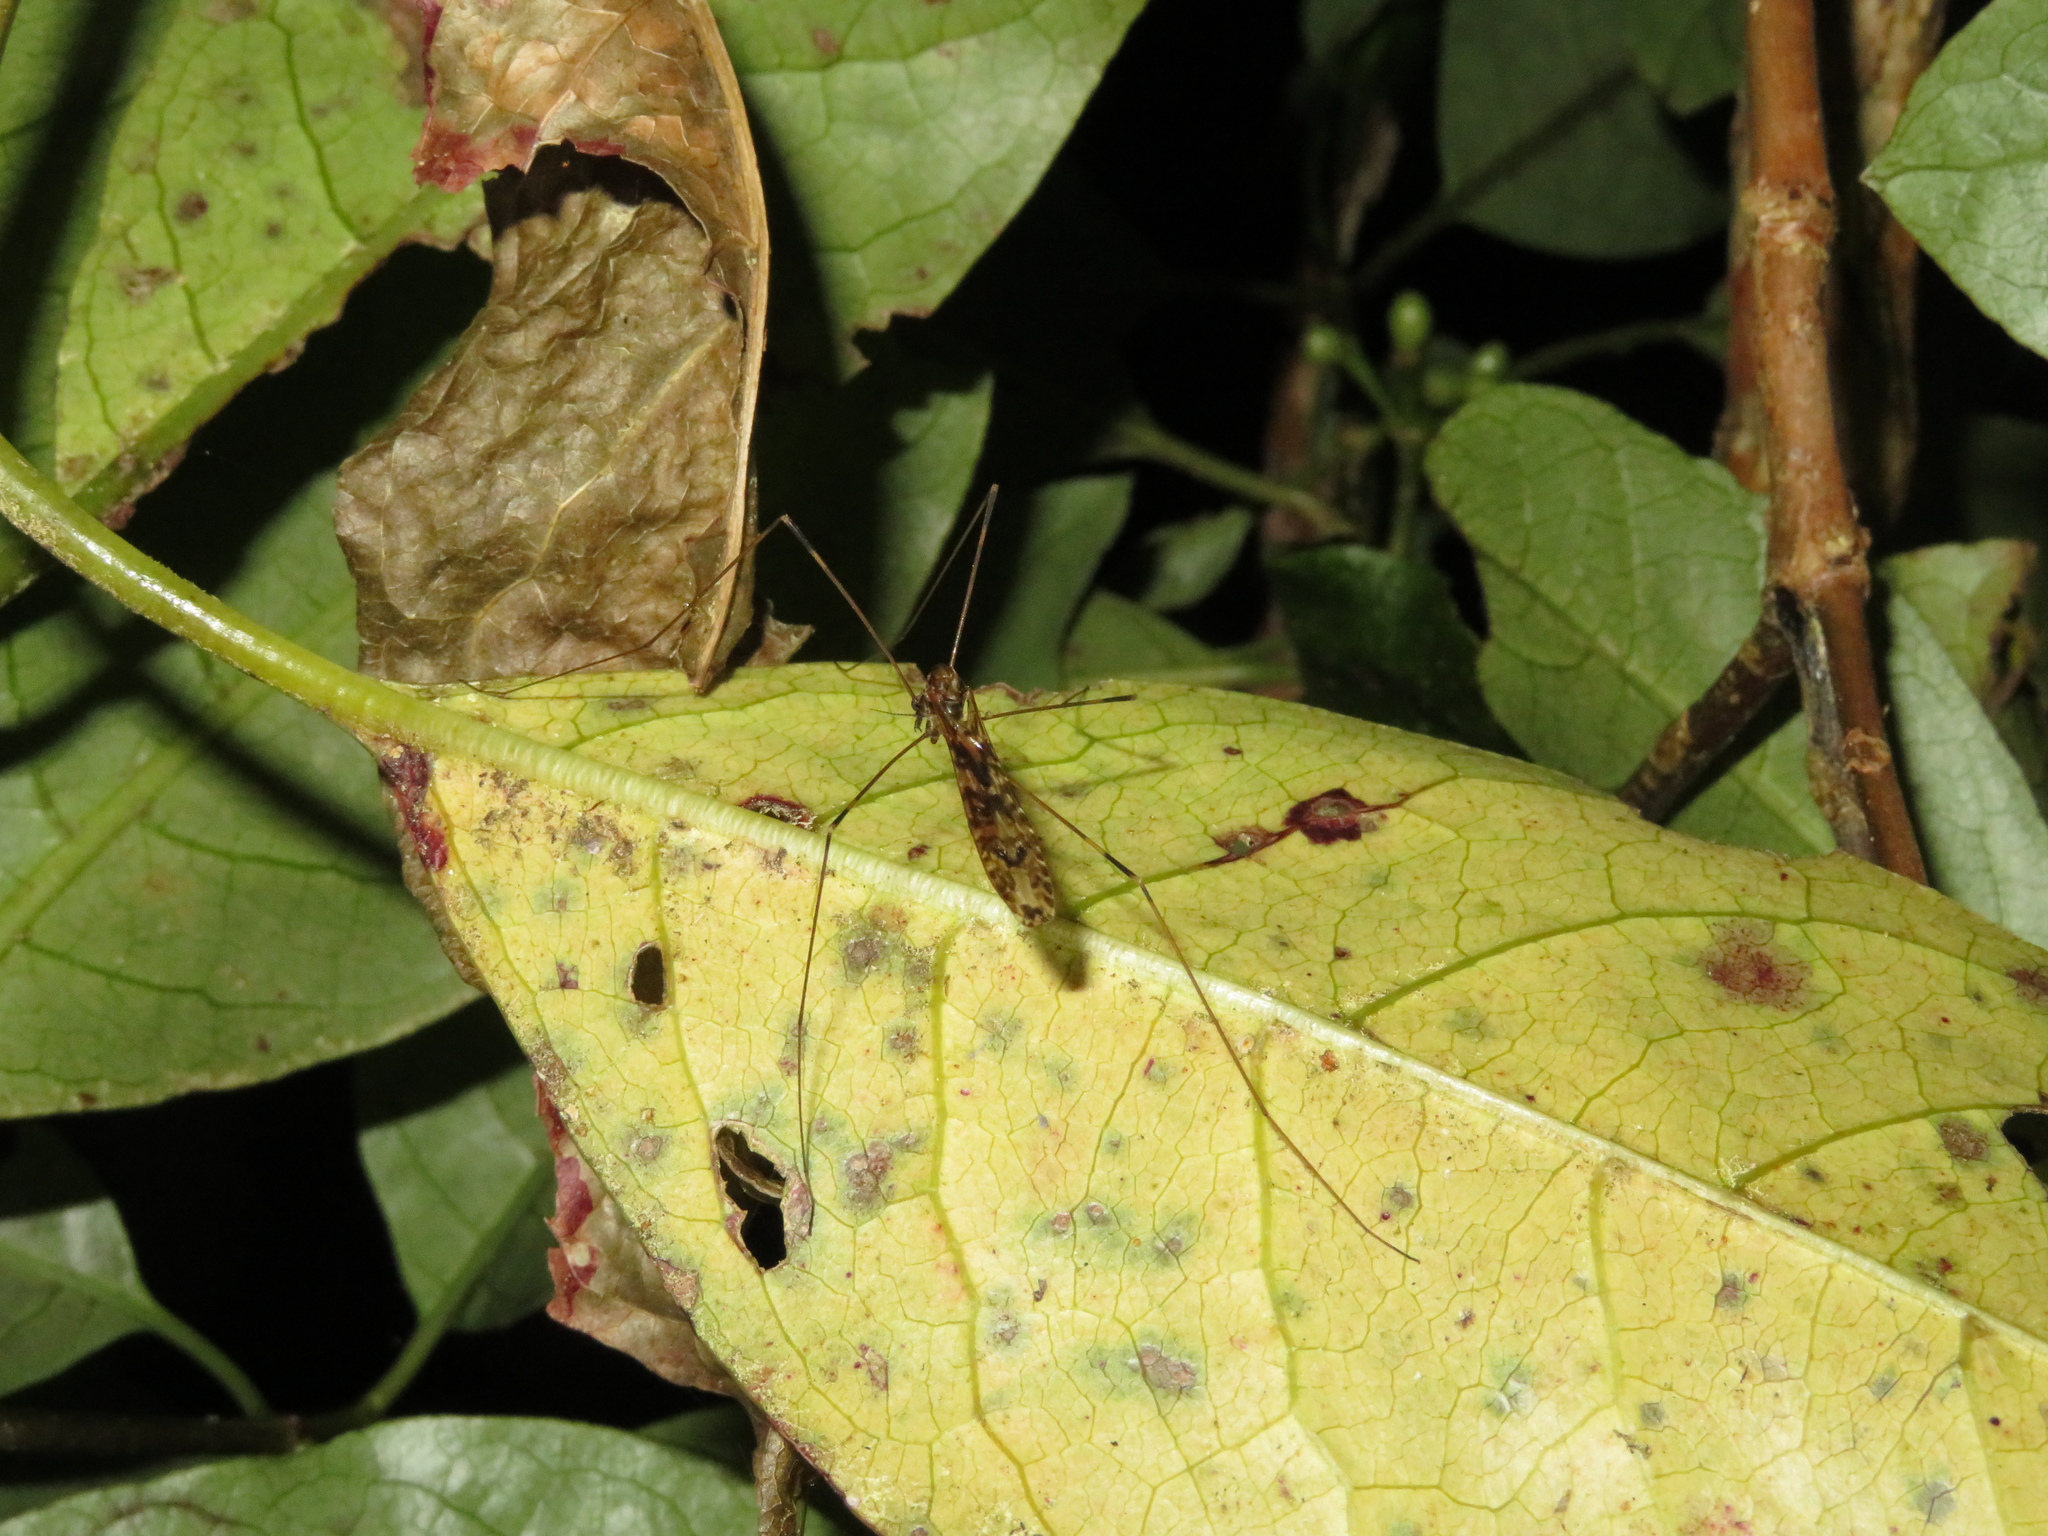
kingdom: Animalia
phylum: Arthropoda
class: Insecta
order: Diptera
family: Limoniidae
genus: Discobola
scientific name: Discobola dohrni
